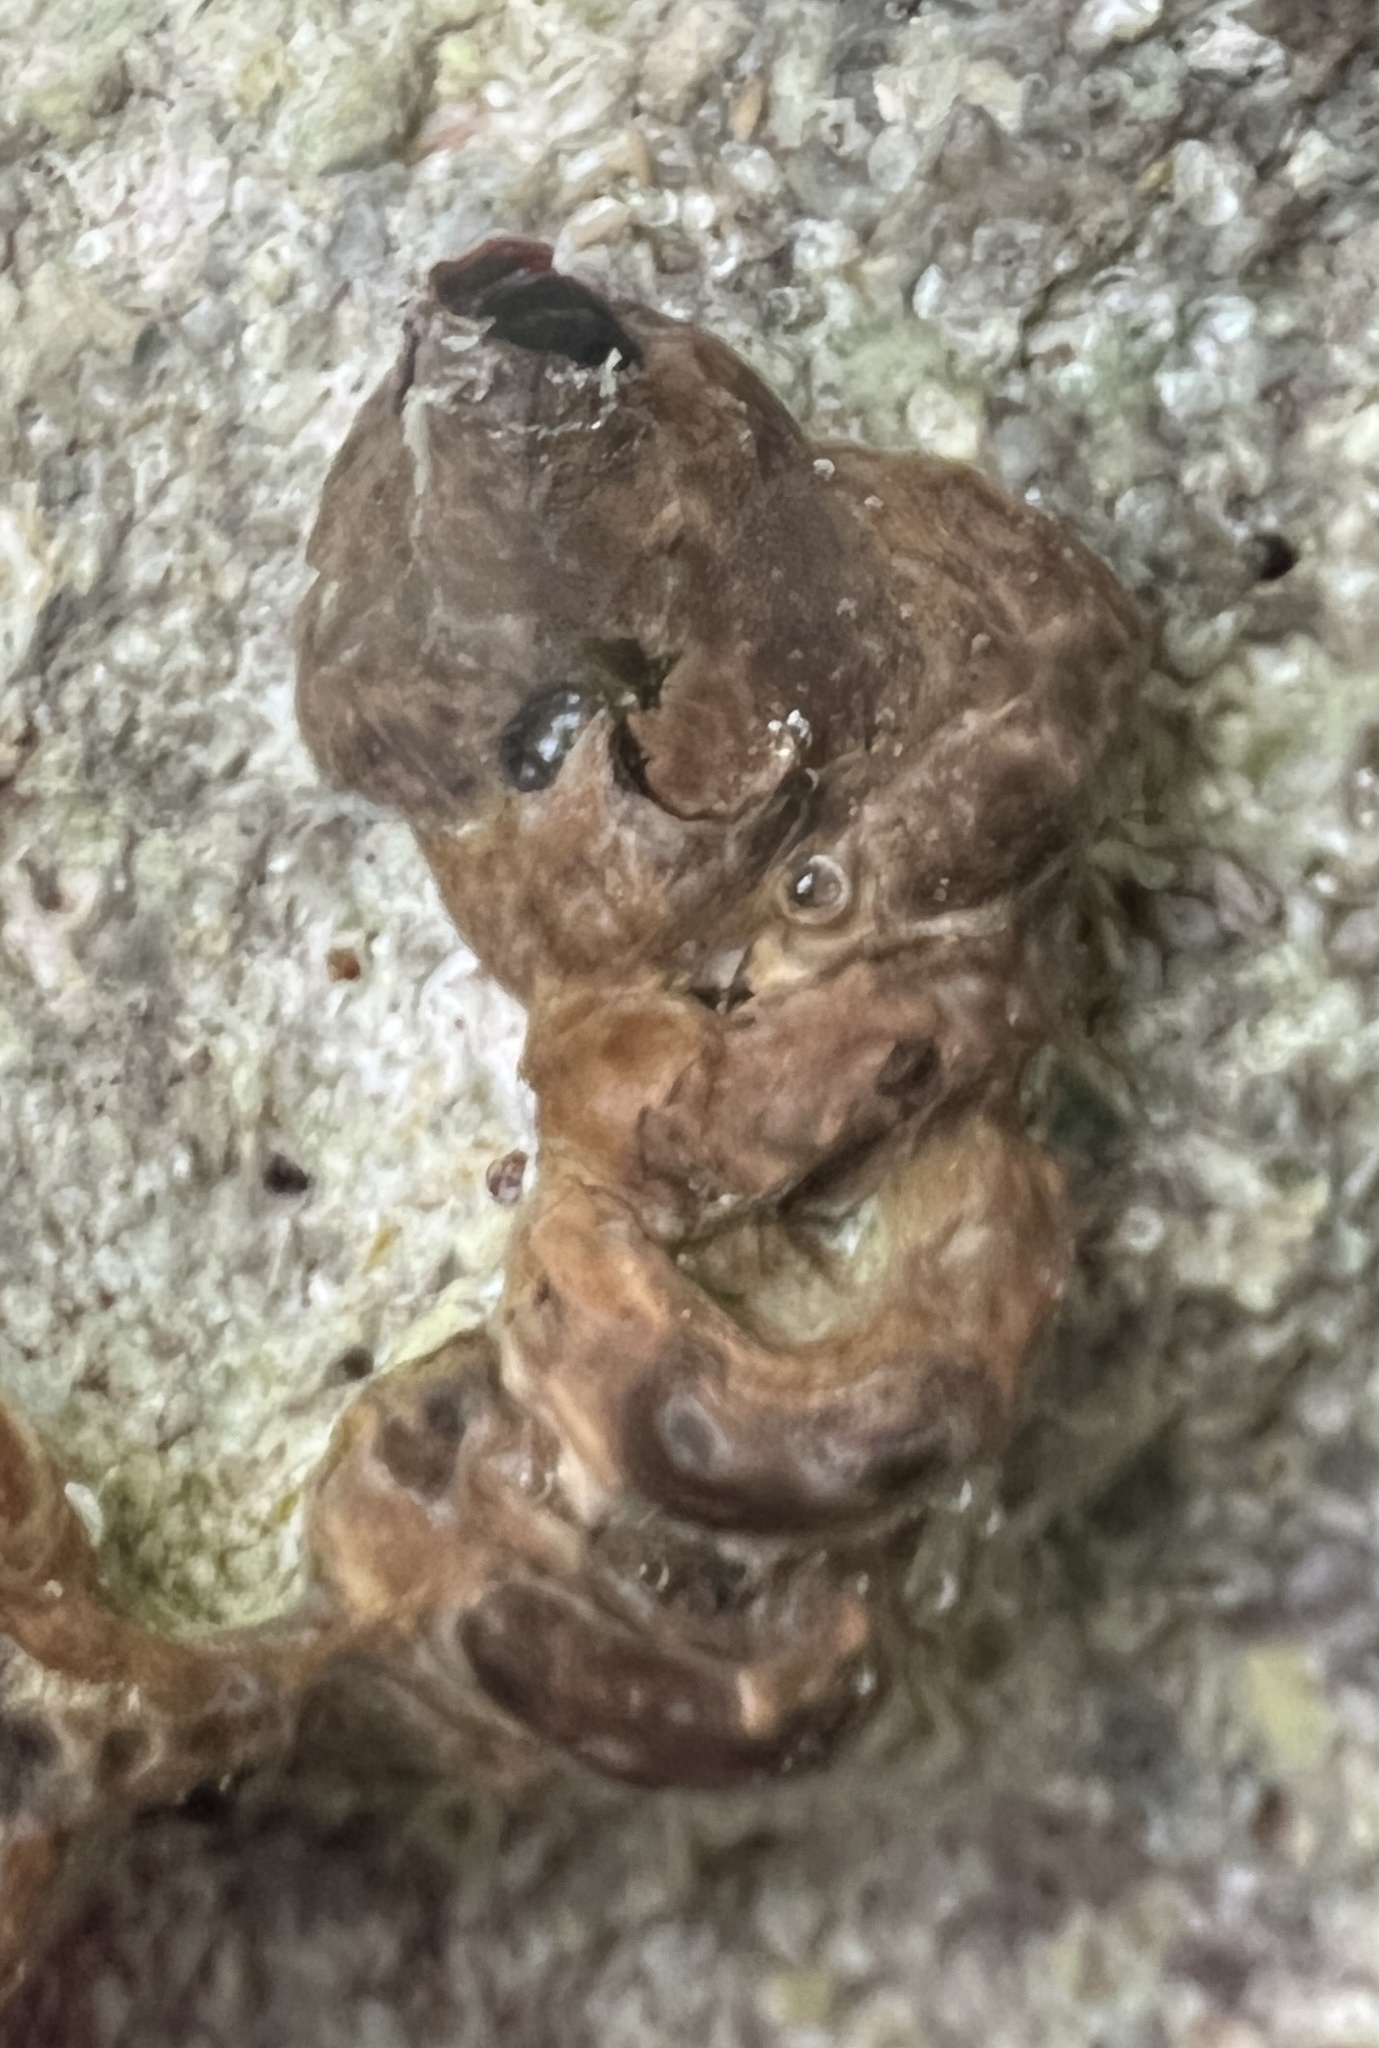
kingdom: Animalia
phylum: Mollusca
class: Gastropoda
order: Littorinimorpha
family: Vermetidae
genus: Petaloconchus
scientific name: Petaloconchus erectus
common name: Erect wormsnail
